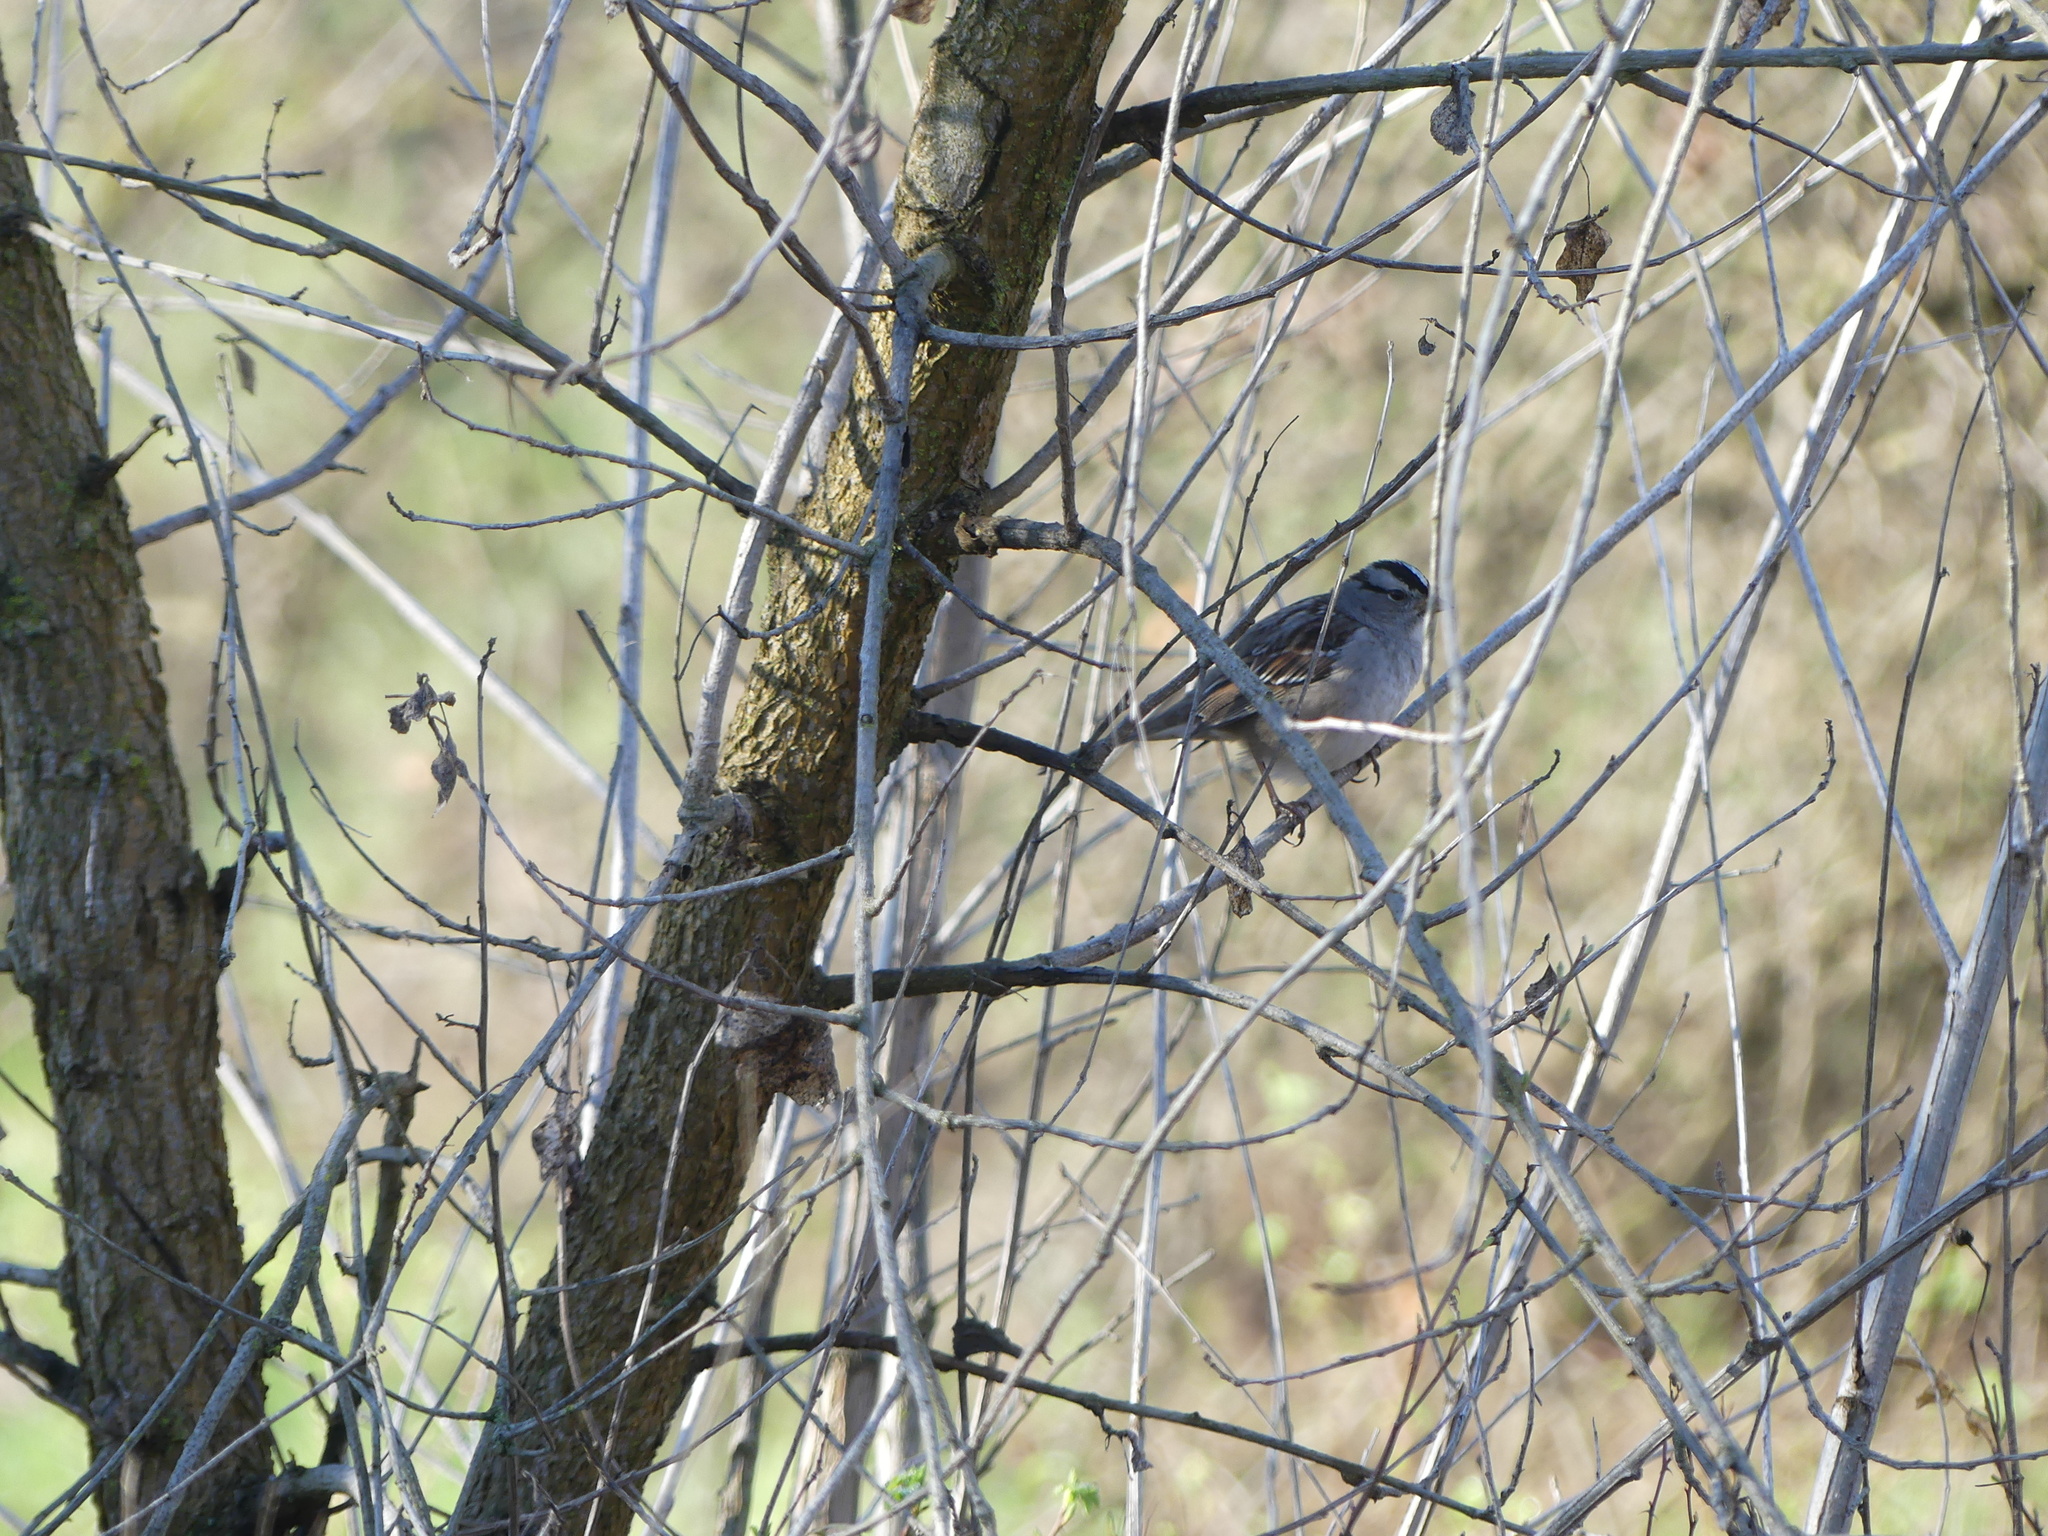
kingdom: Animalia
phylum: Chordata
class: Aves
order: Passeriformes
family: Passerellidae
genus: Zonotrichia
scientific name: Zonotrichia leucophrys
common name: White-crowned sparrow
